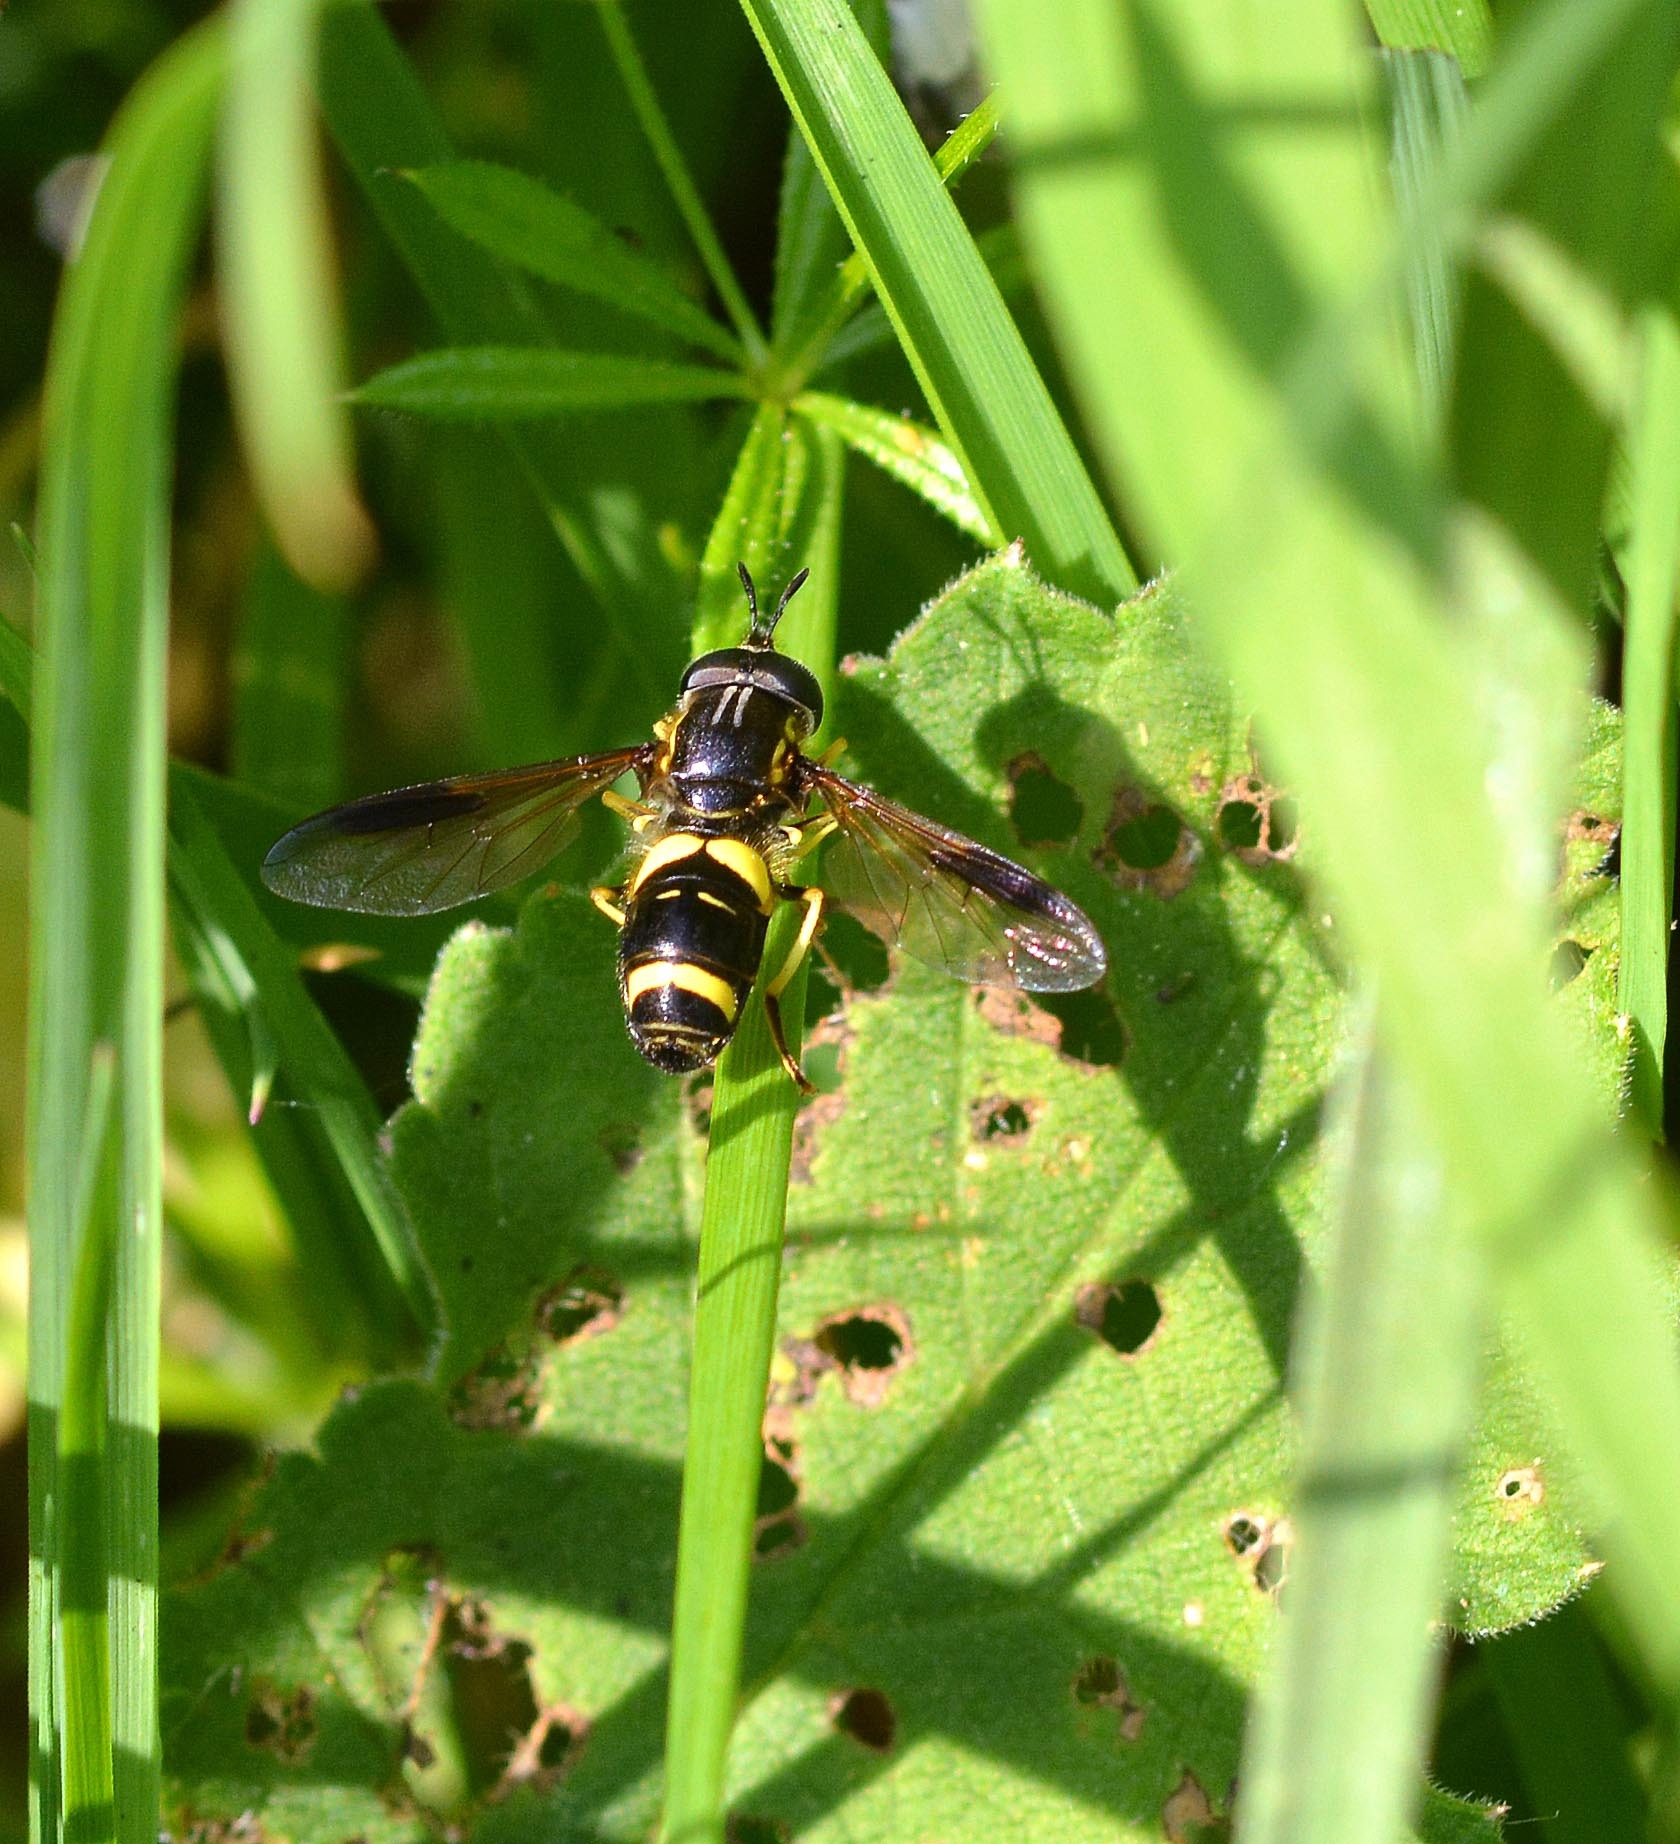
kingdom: Animalia
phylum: Arthropoda
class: Insecta
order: Diptera
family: Syrphidae
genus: Chrysotoxum
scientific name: Chrysotoxum bicincta
